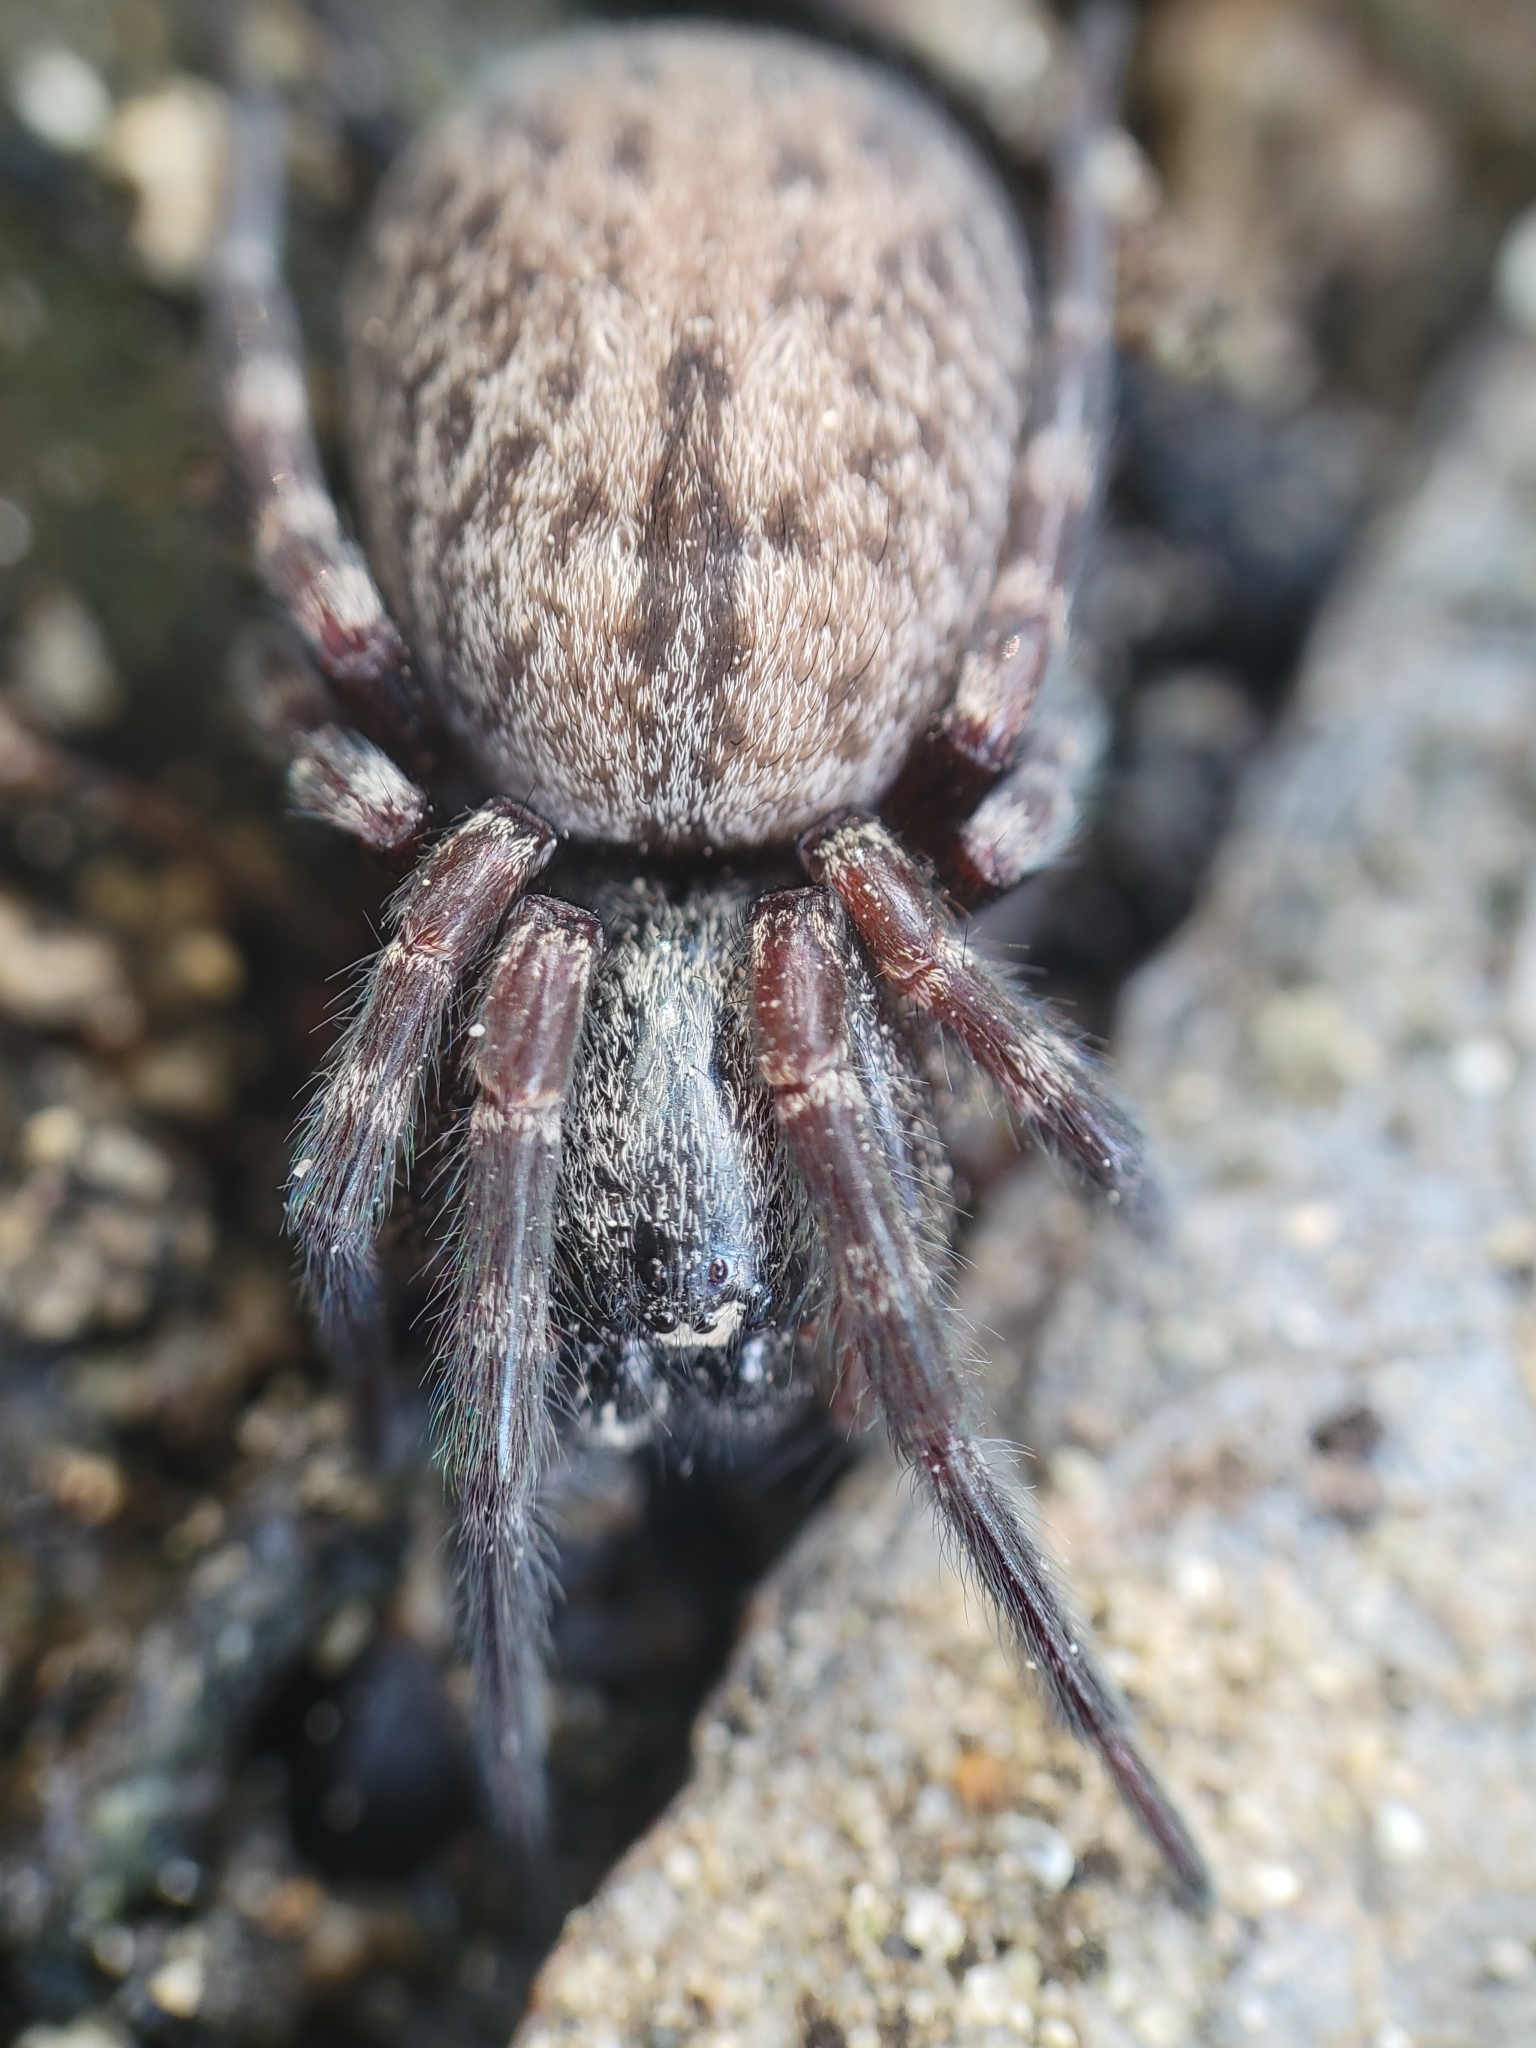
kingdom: Animalia
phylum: Arthropoda
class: Arachnida
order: Araneae
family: Desidae
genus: Badumna
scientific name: Badumna longinqua
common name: Gray house spider
